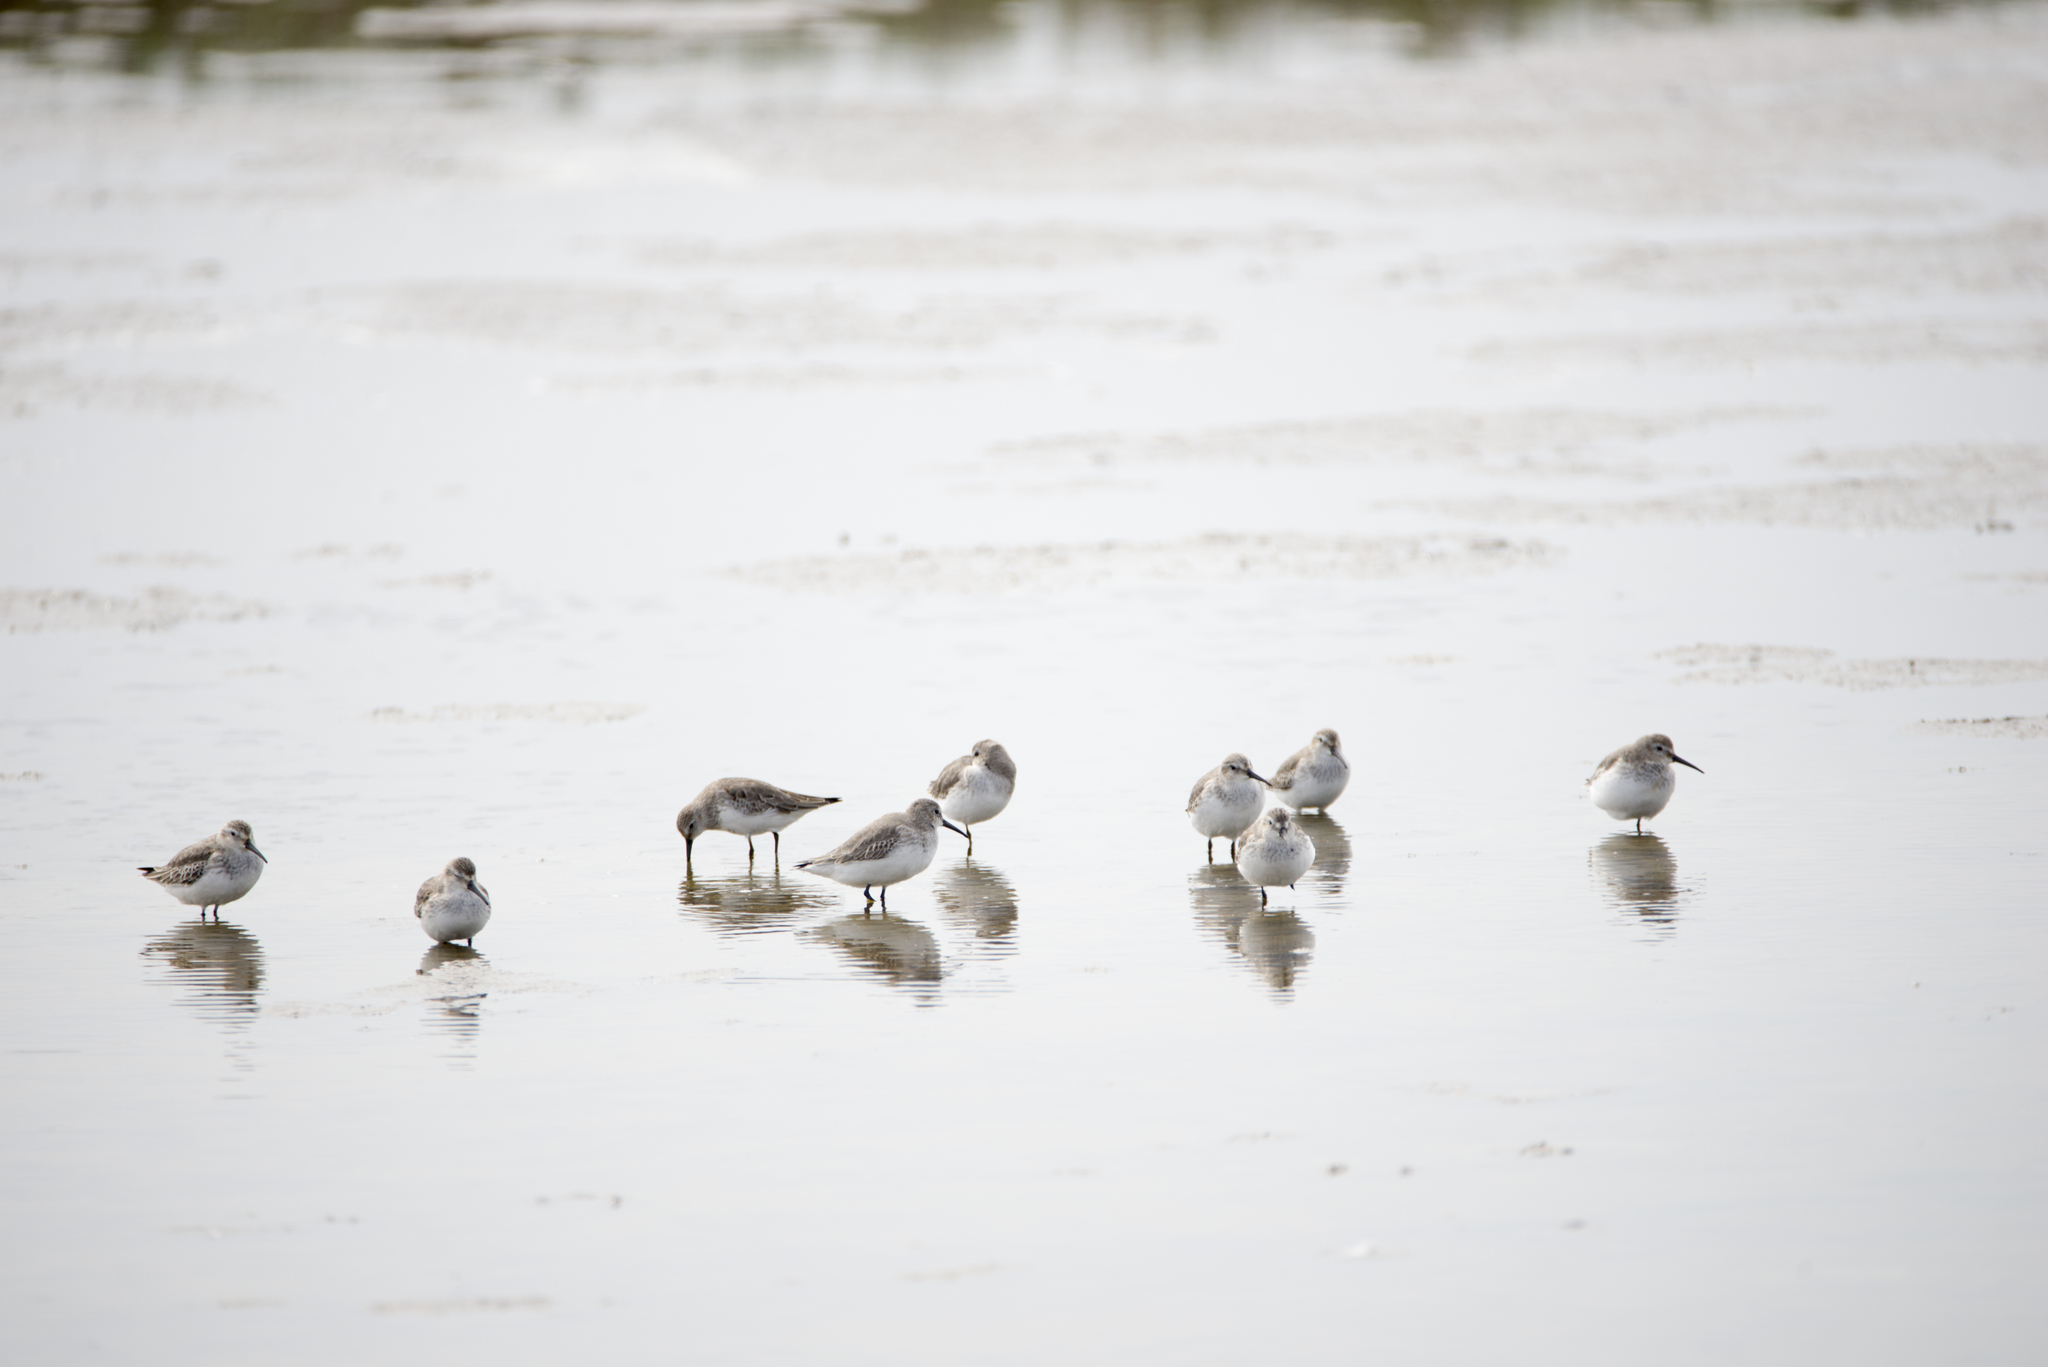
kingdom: Animalia
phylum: Chordata
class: Aves
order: Charadriiformes
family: Scolopacidae
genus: Calidris
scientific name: Calidris alpina
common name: Dunlin
